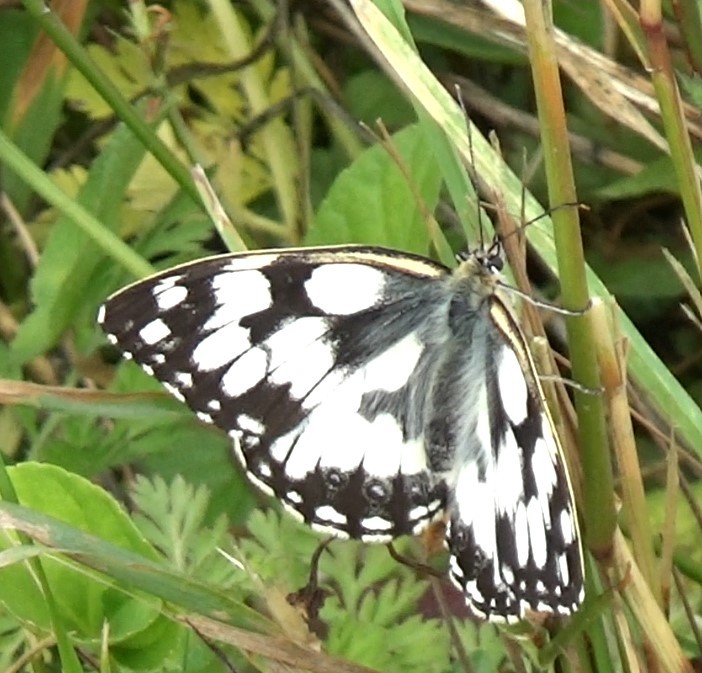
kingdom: Animalia
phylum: Arthropoda
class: Insecta
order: Lepidoptera
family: Nymphalidae
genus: Melanargia
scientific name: Melanargia galathea
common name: Marbled white
